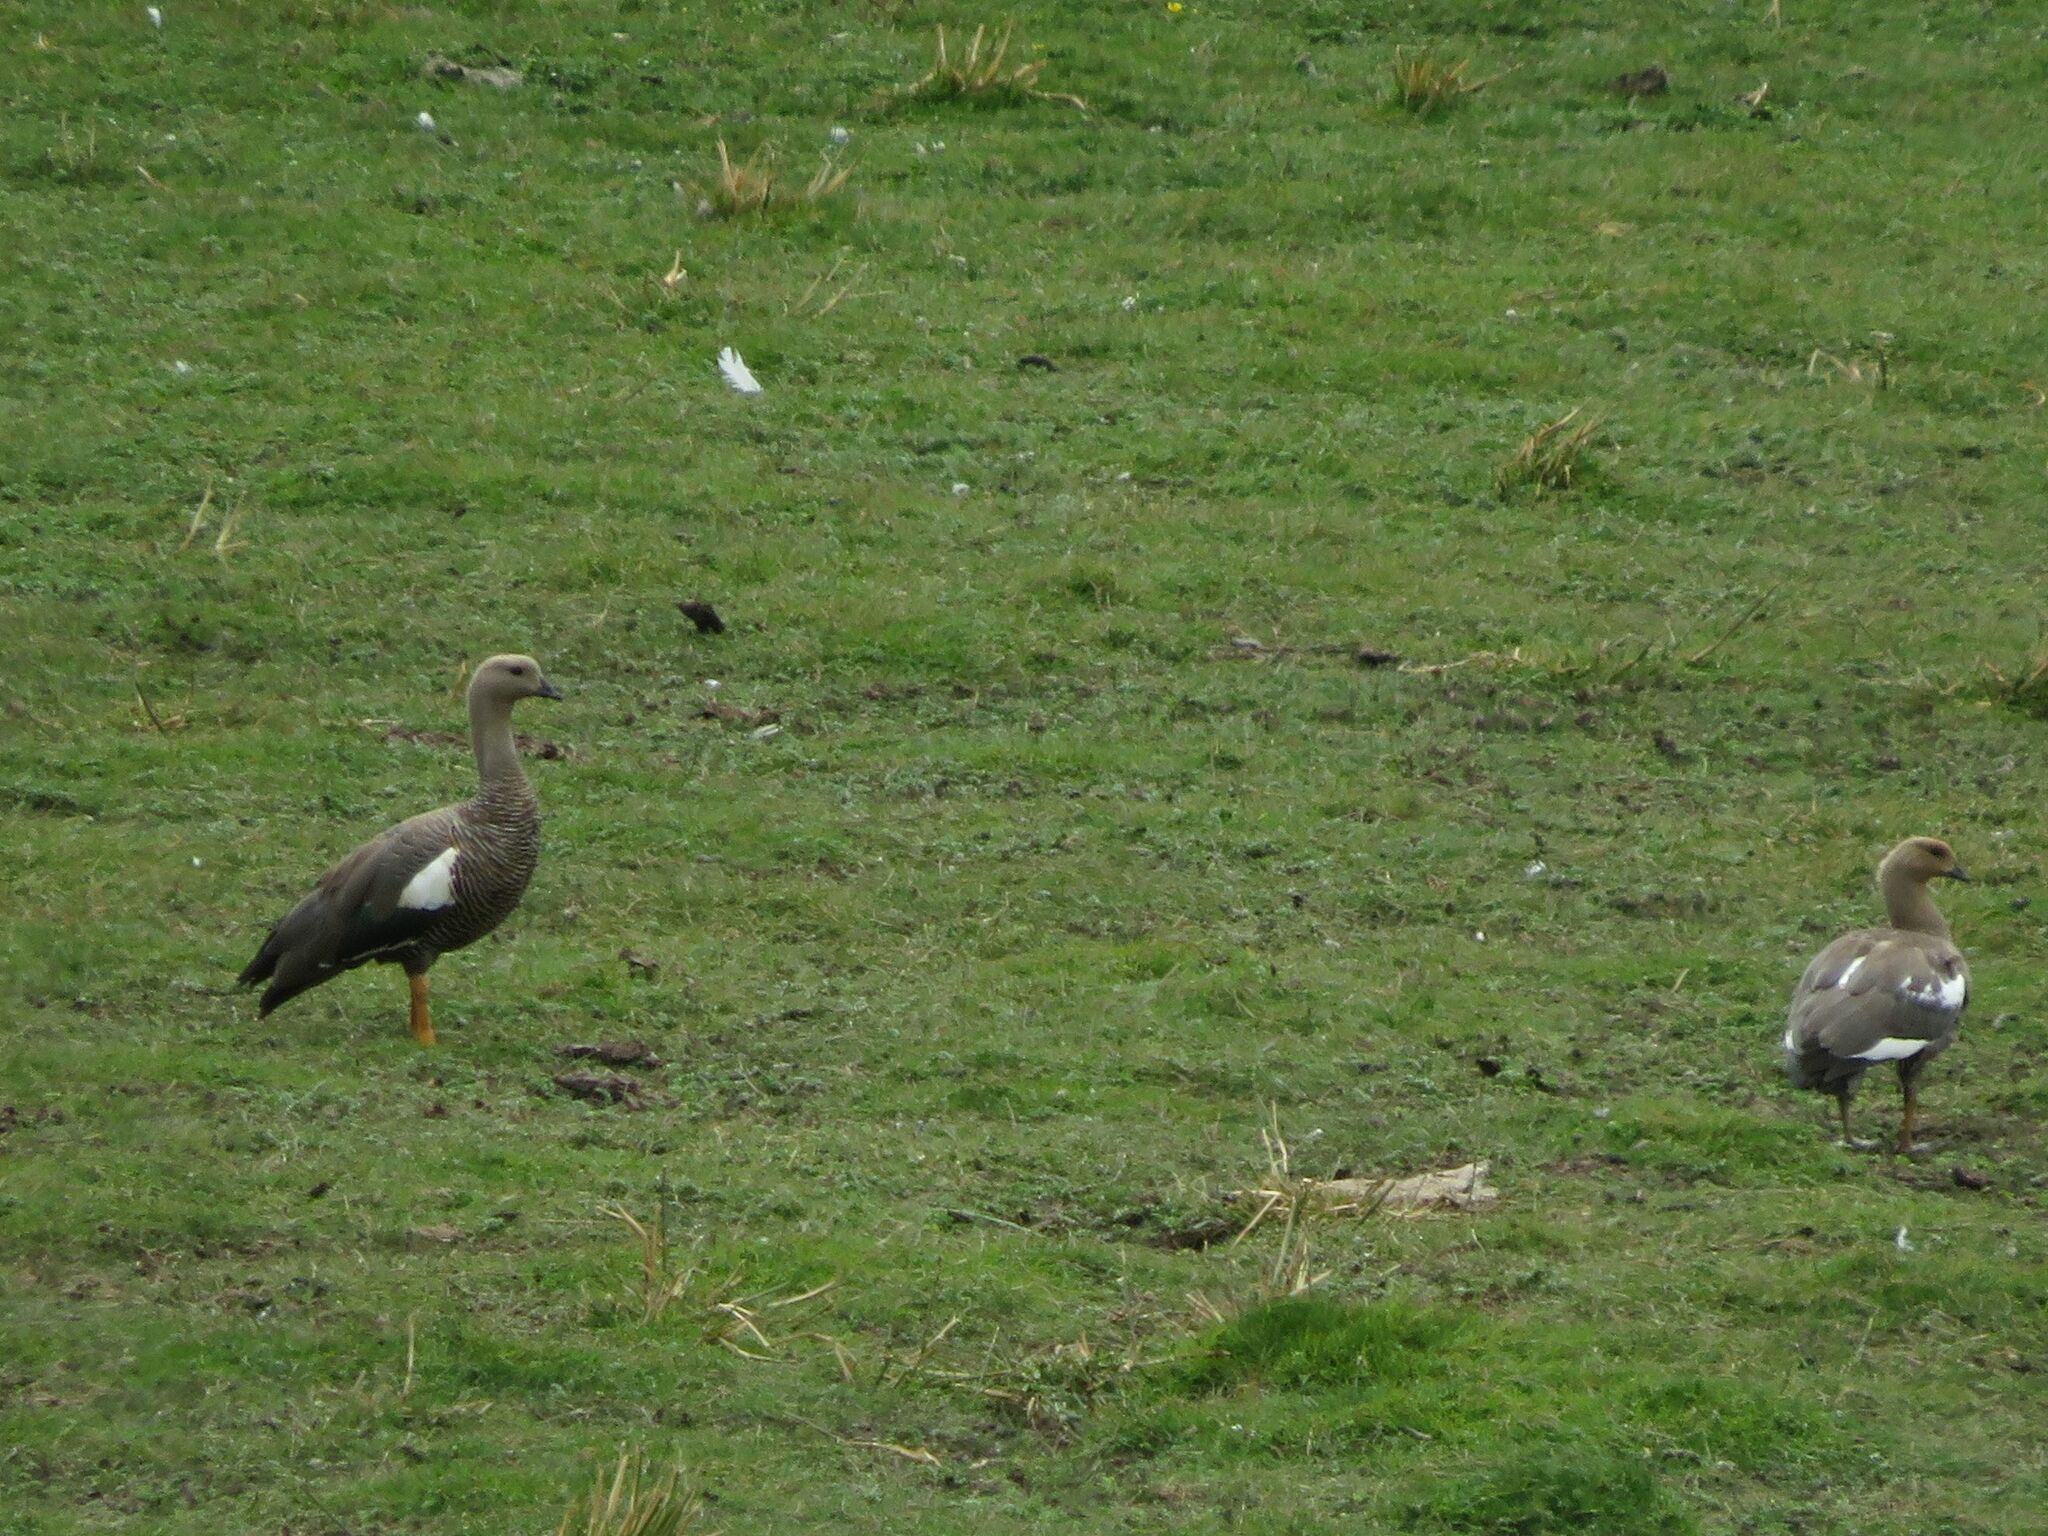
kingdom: Animalia
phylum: Chordata
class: Aves
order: Anseriformes
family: Anatidae
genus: Chloephaga
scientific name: Chloephaga picta
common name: Upland goose
